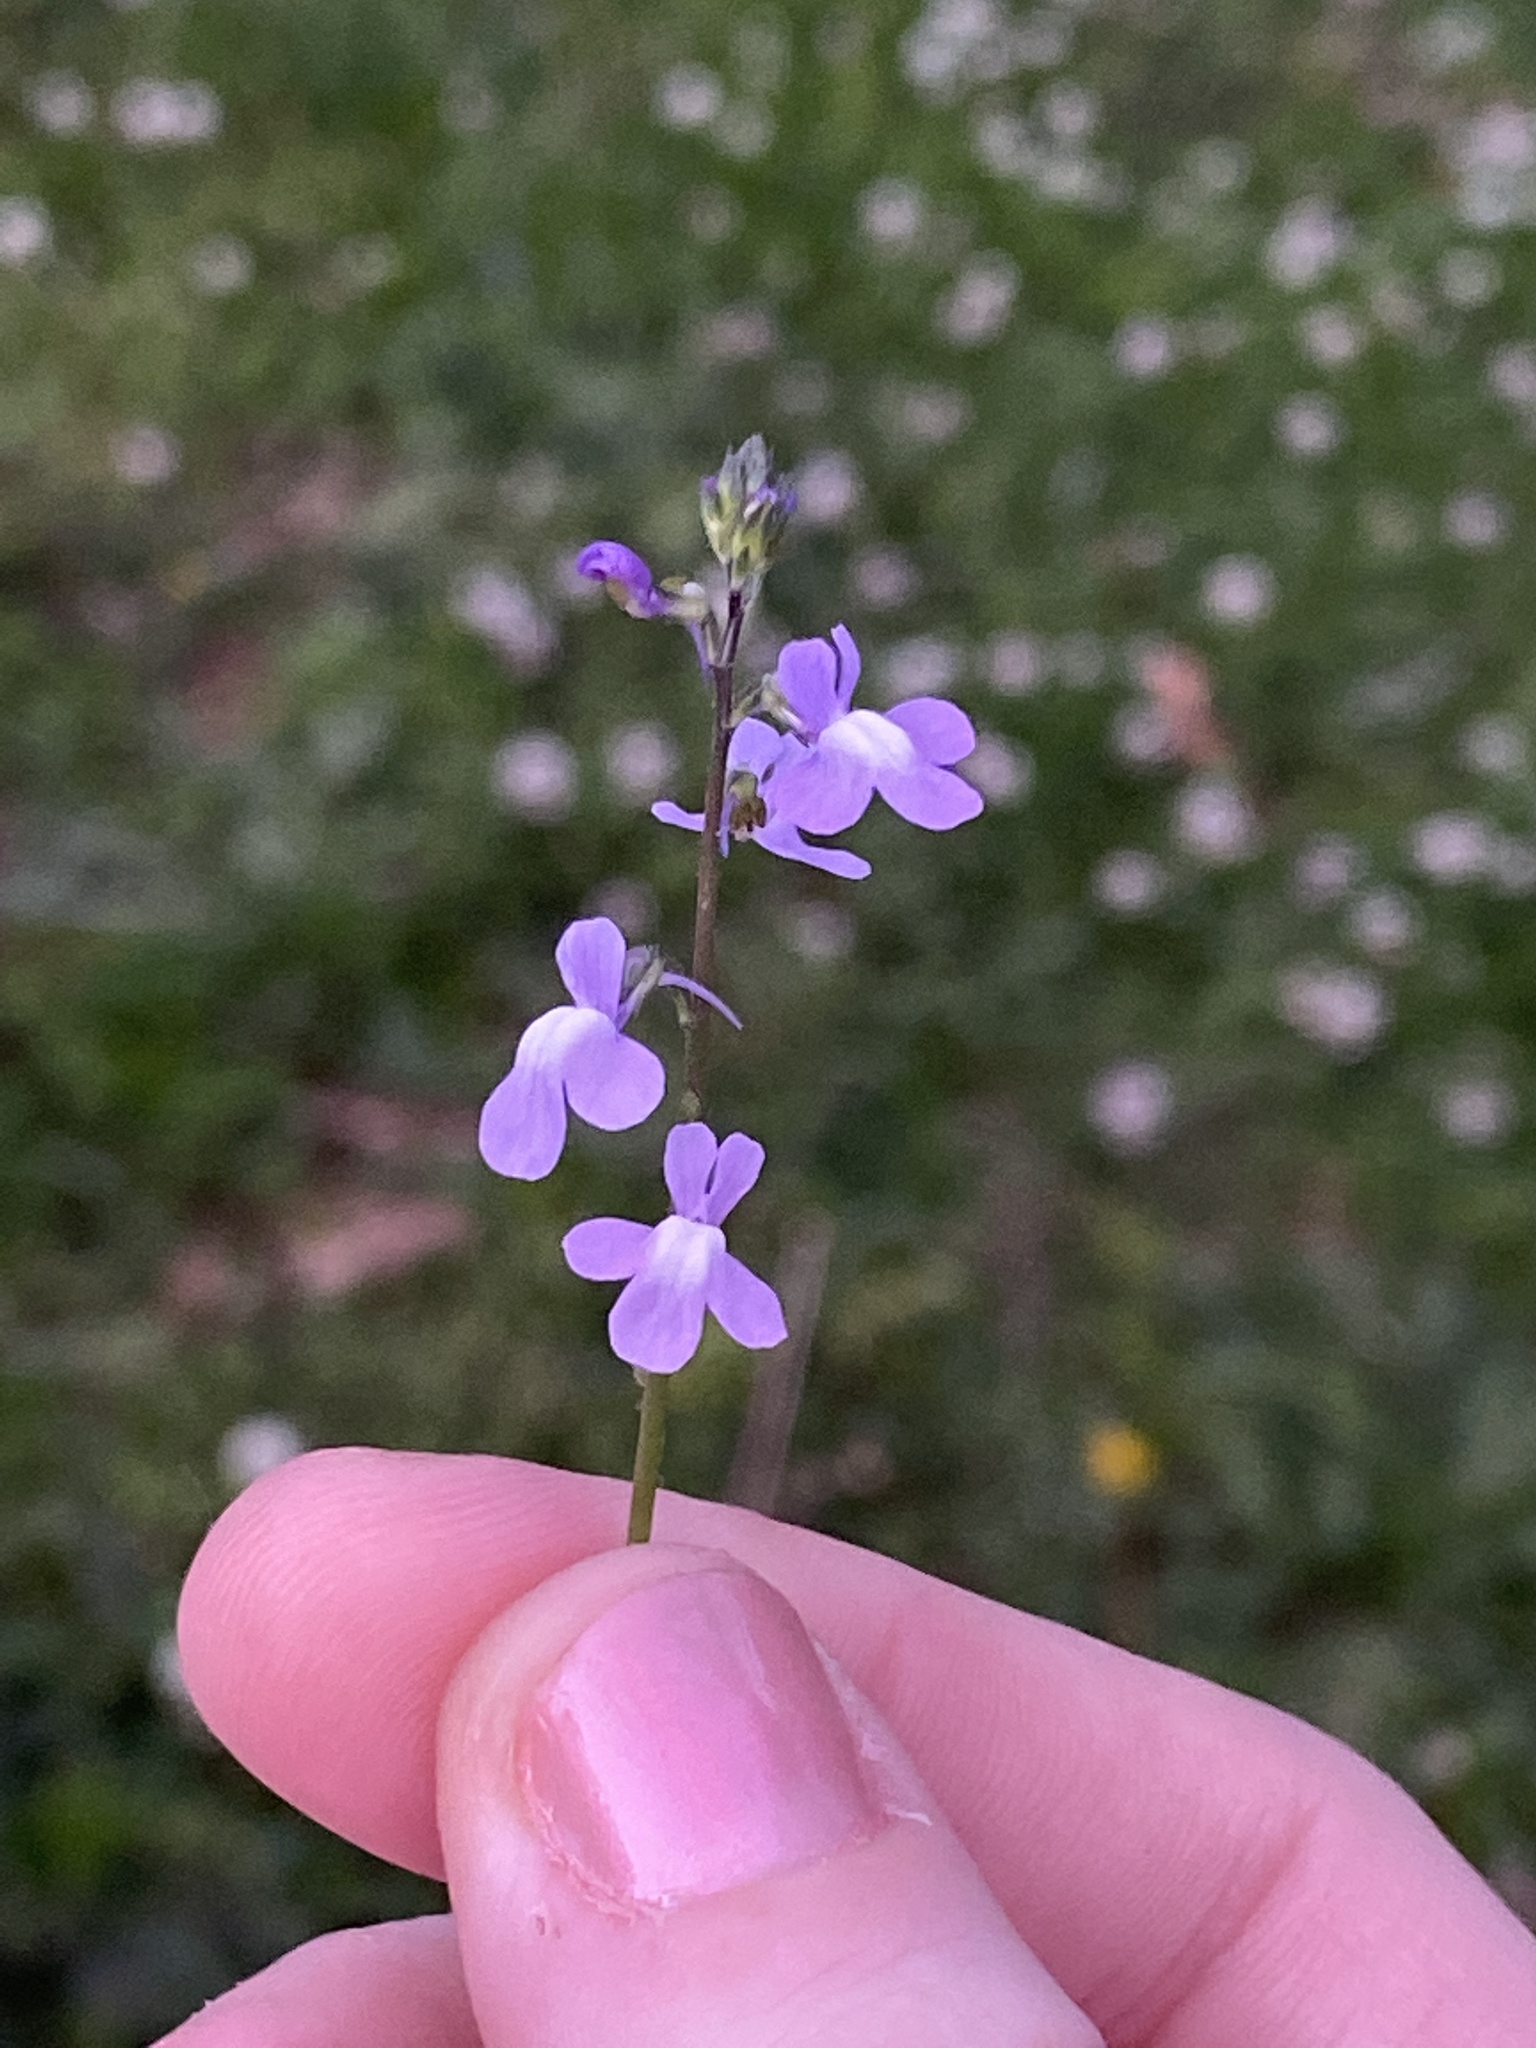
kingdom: Plantae
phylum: Tracheophyta
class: Magnoliopsida
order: Lamiales
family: Plantaginaceae
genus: Nuttallanthus
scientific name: Nuttallanthus canadensis
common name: Blue toadflax
